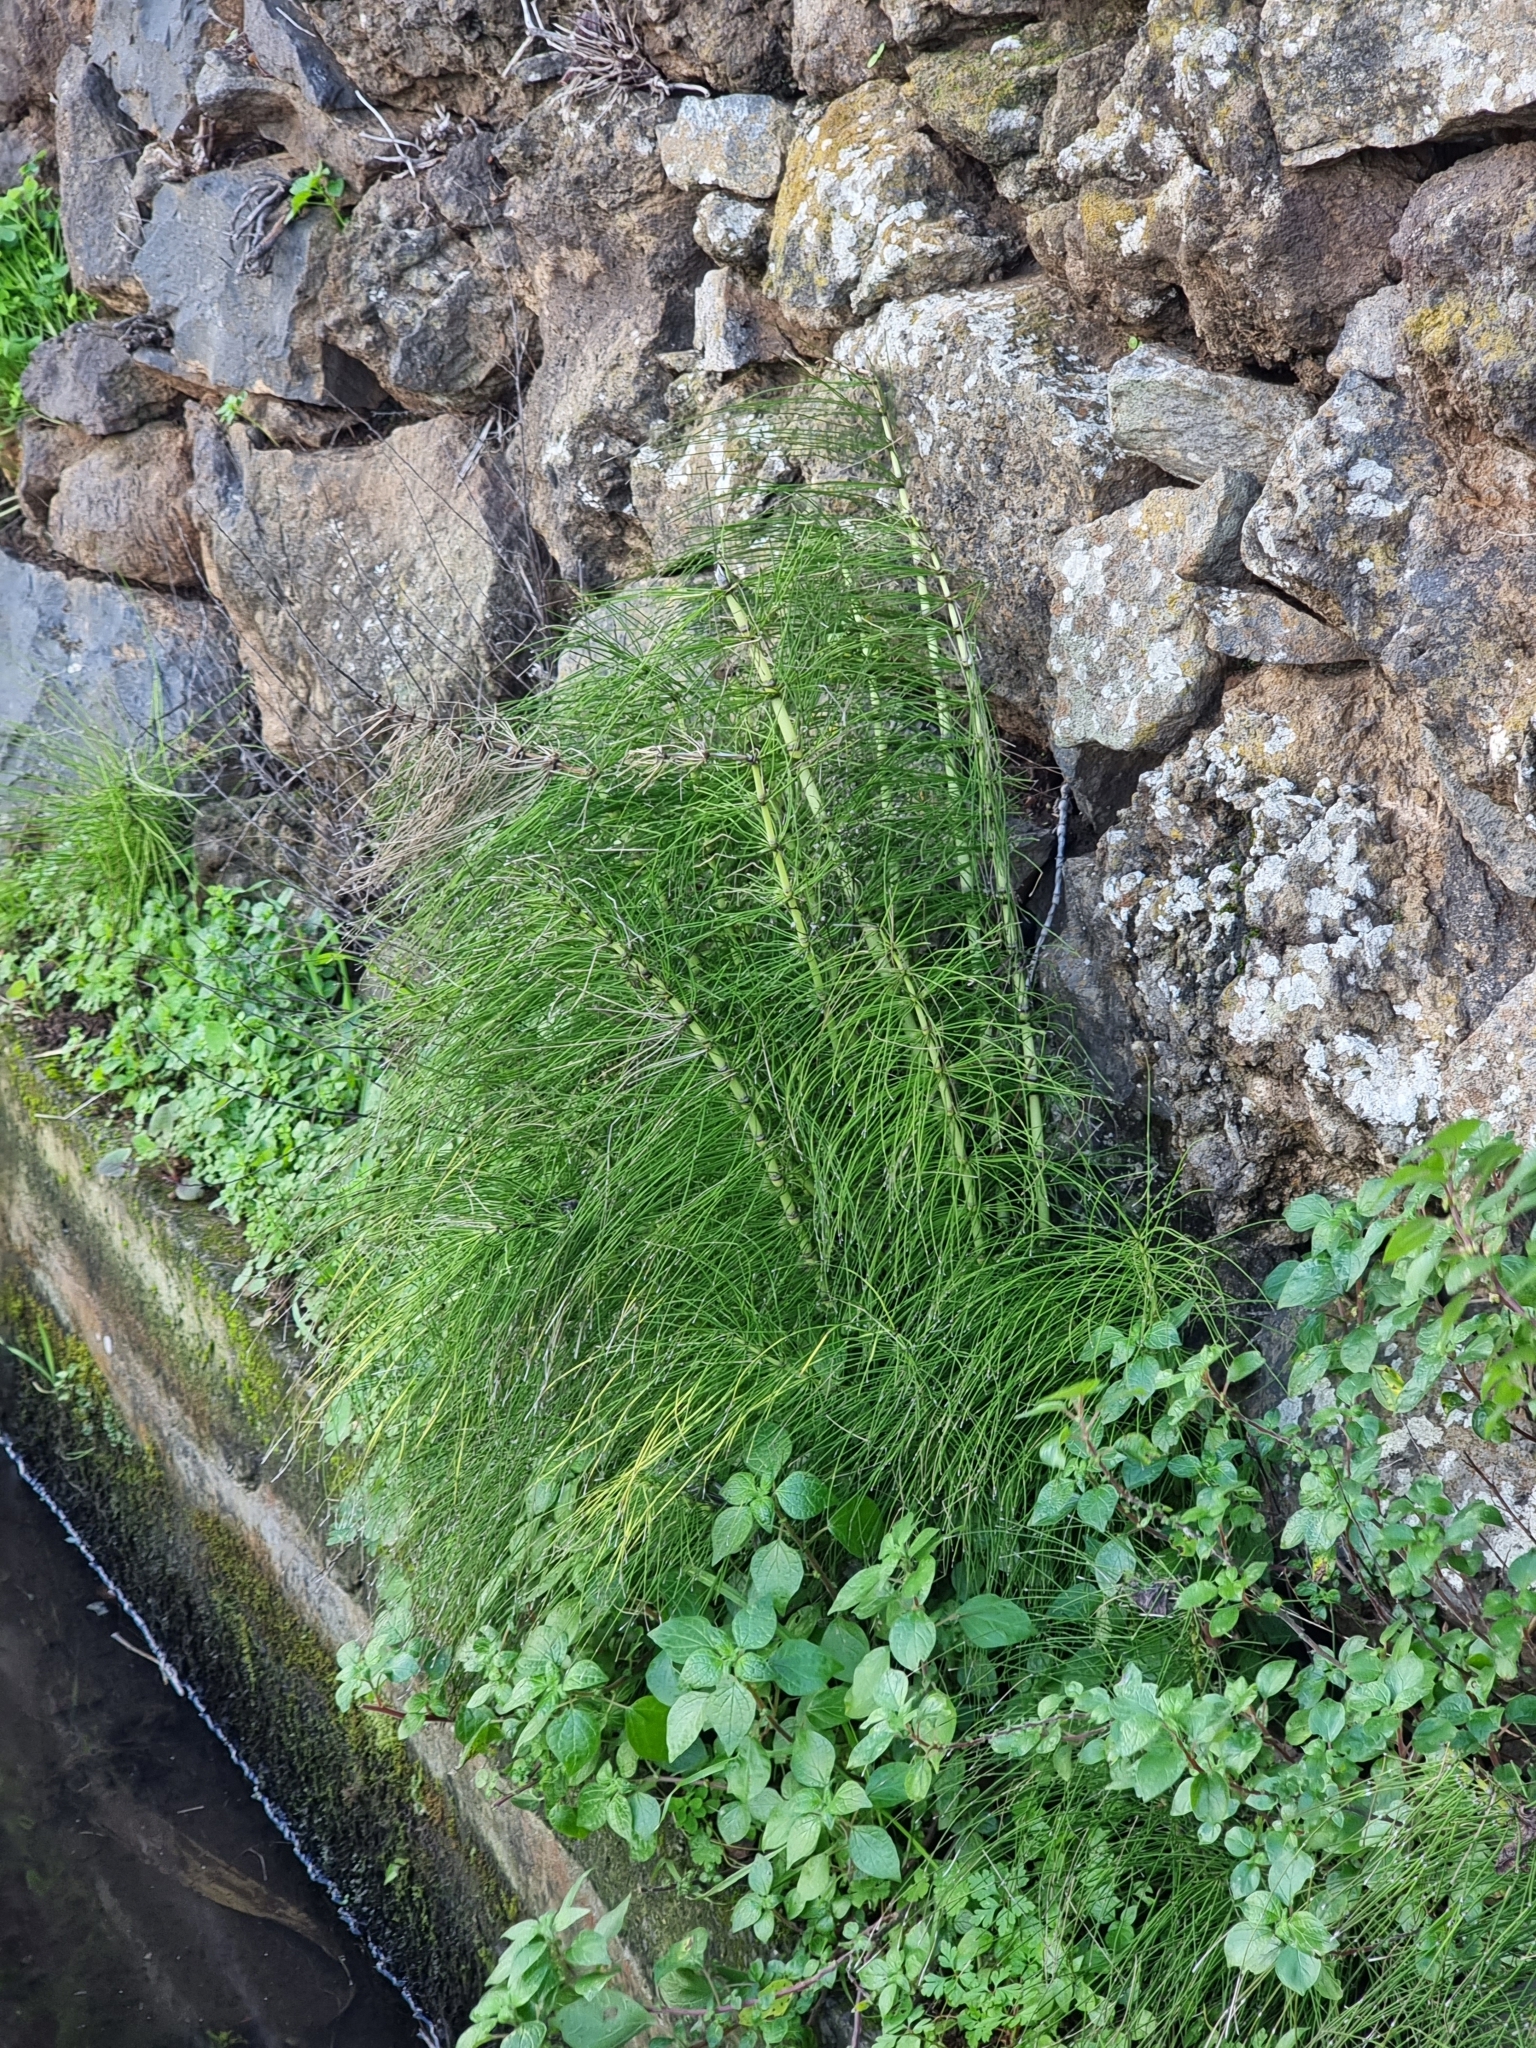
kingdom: Plantae
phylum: Tracheophyta
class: Polypodiopsida
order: Equisetales
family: Equisetaceae
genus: Equisetum
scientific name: Equisetum telmateia
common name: Great horsetail
